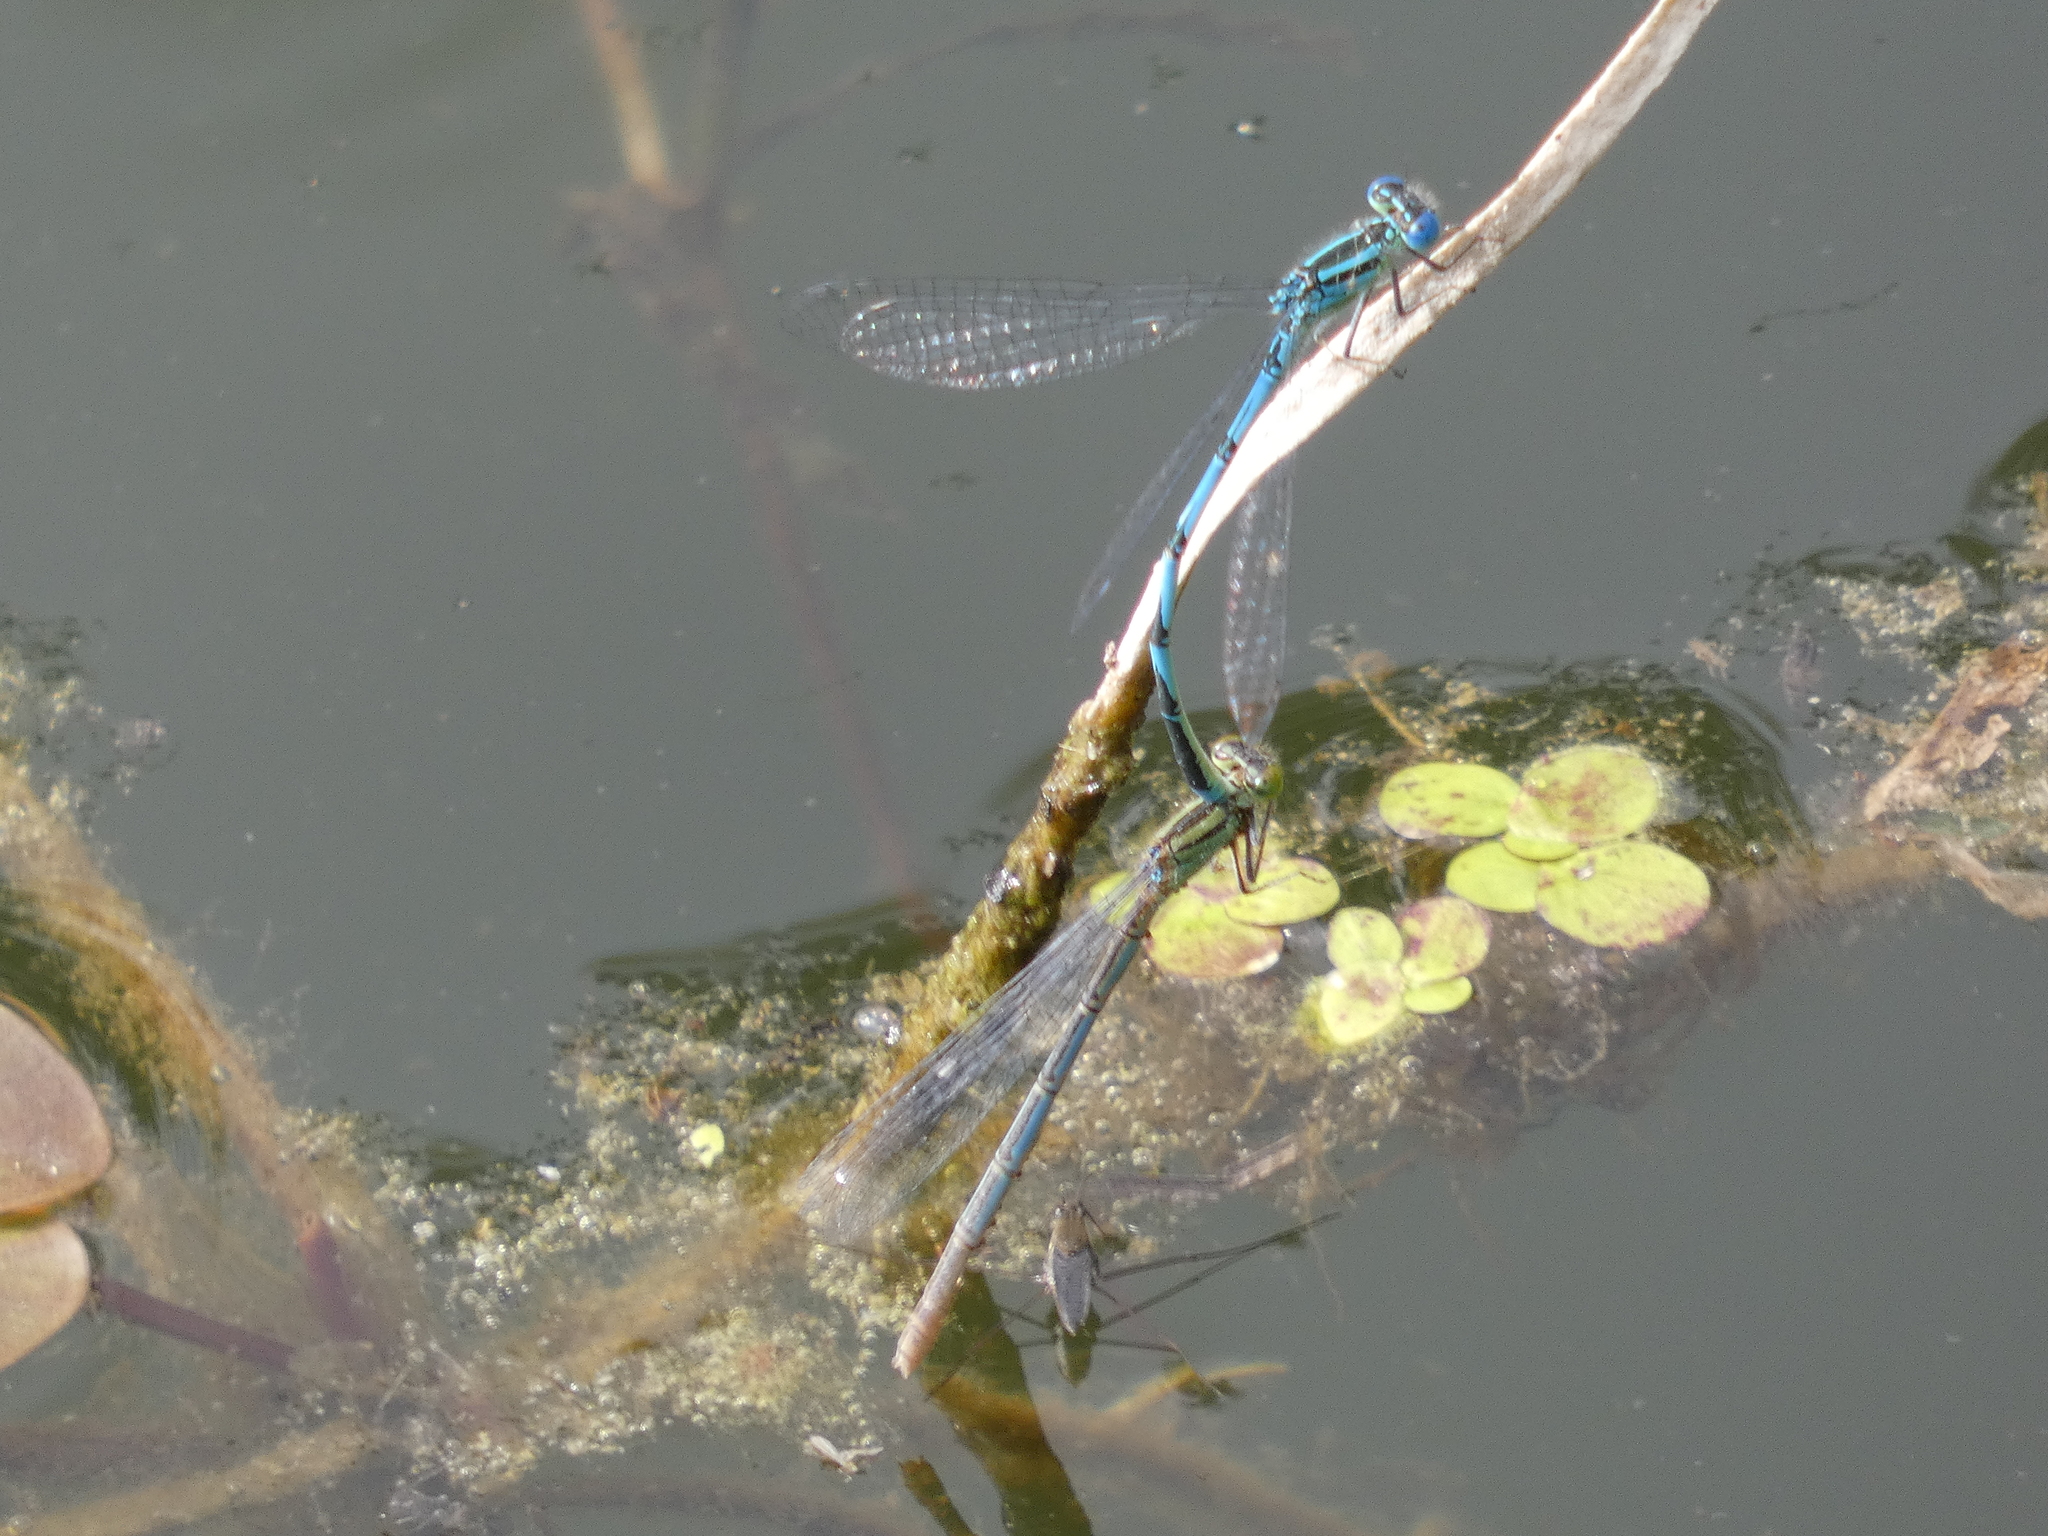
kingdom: Animalia
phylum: Arthropoda
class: Insecta
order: Odonata
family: Coenagrionidae
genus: Erythromma
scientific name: Erythromma lindenii
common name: Blue-eye
